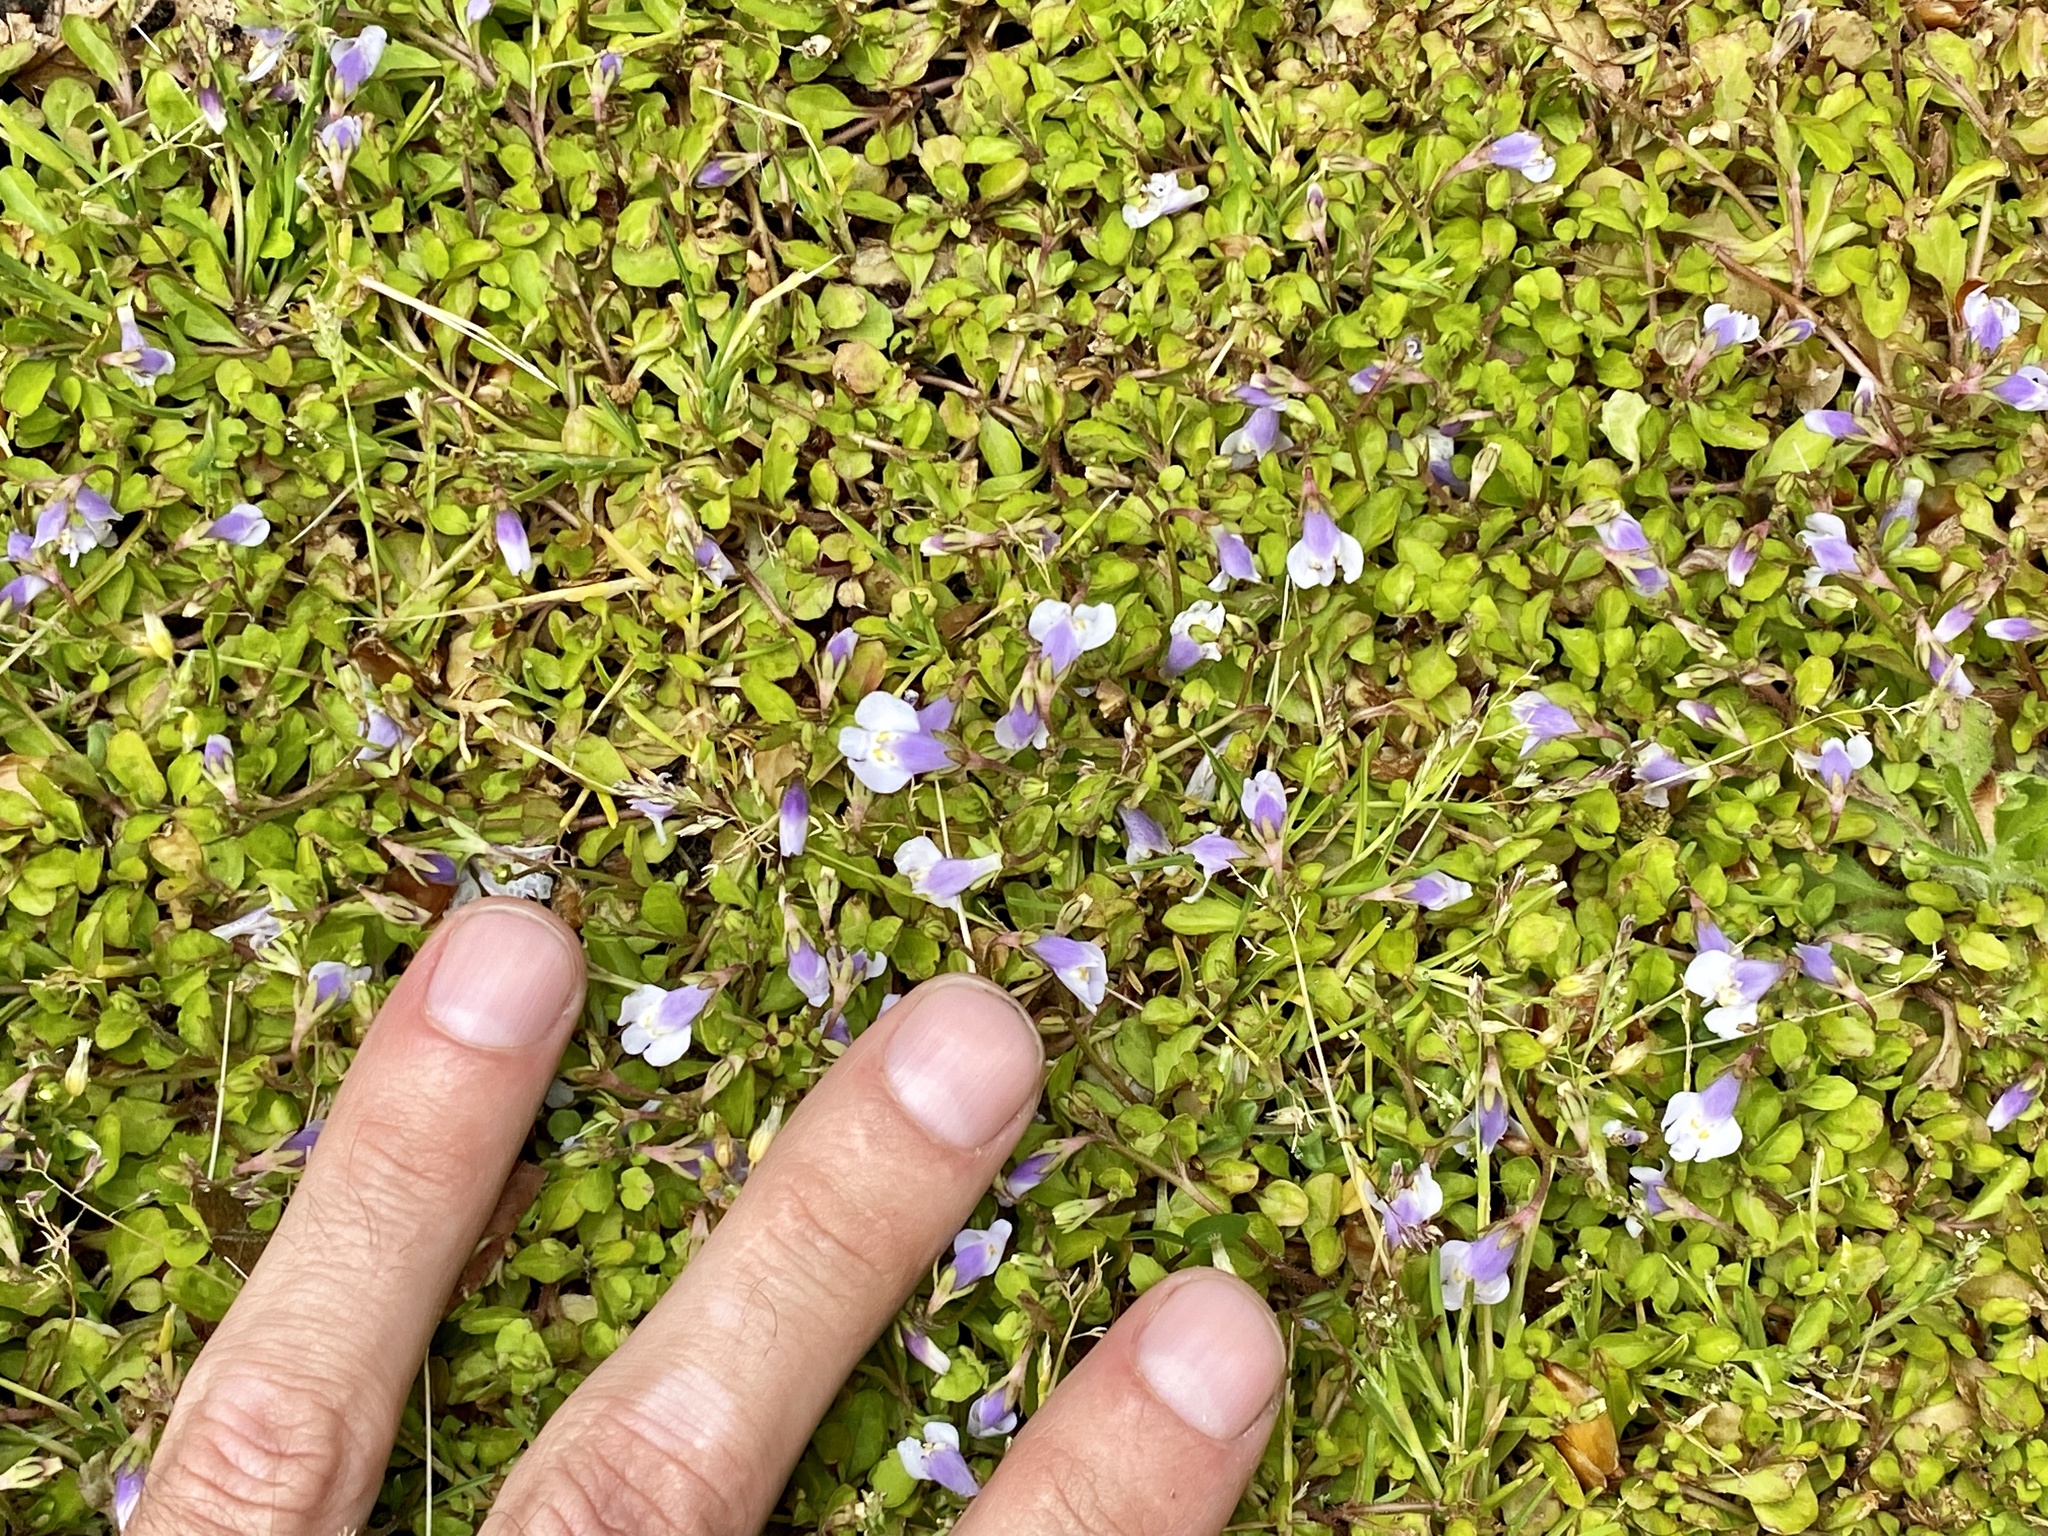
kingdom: Plantae
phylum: Tracheophyta
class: Magnoliopsida
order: Lamiales
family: Mazaceae
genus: Mazus
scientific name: Mazus pumilus
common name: Japanese mazus
